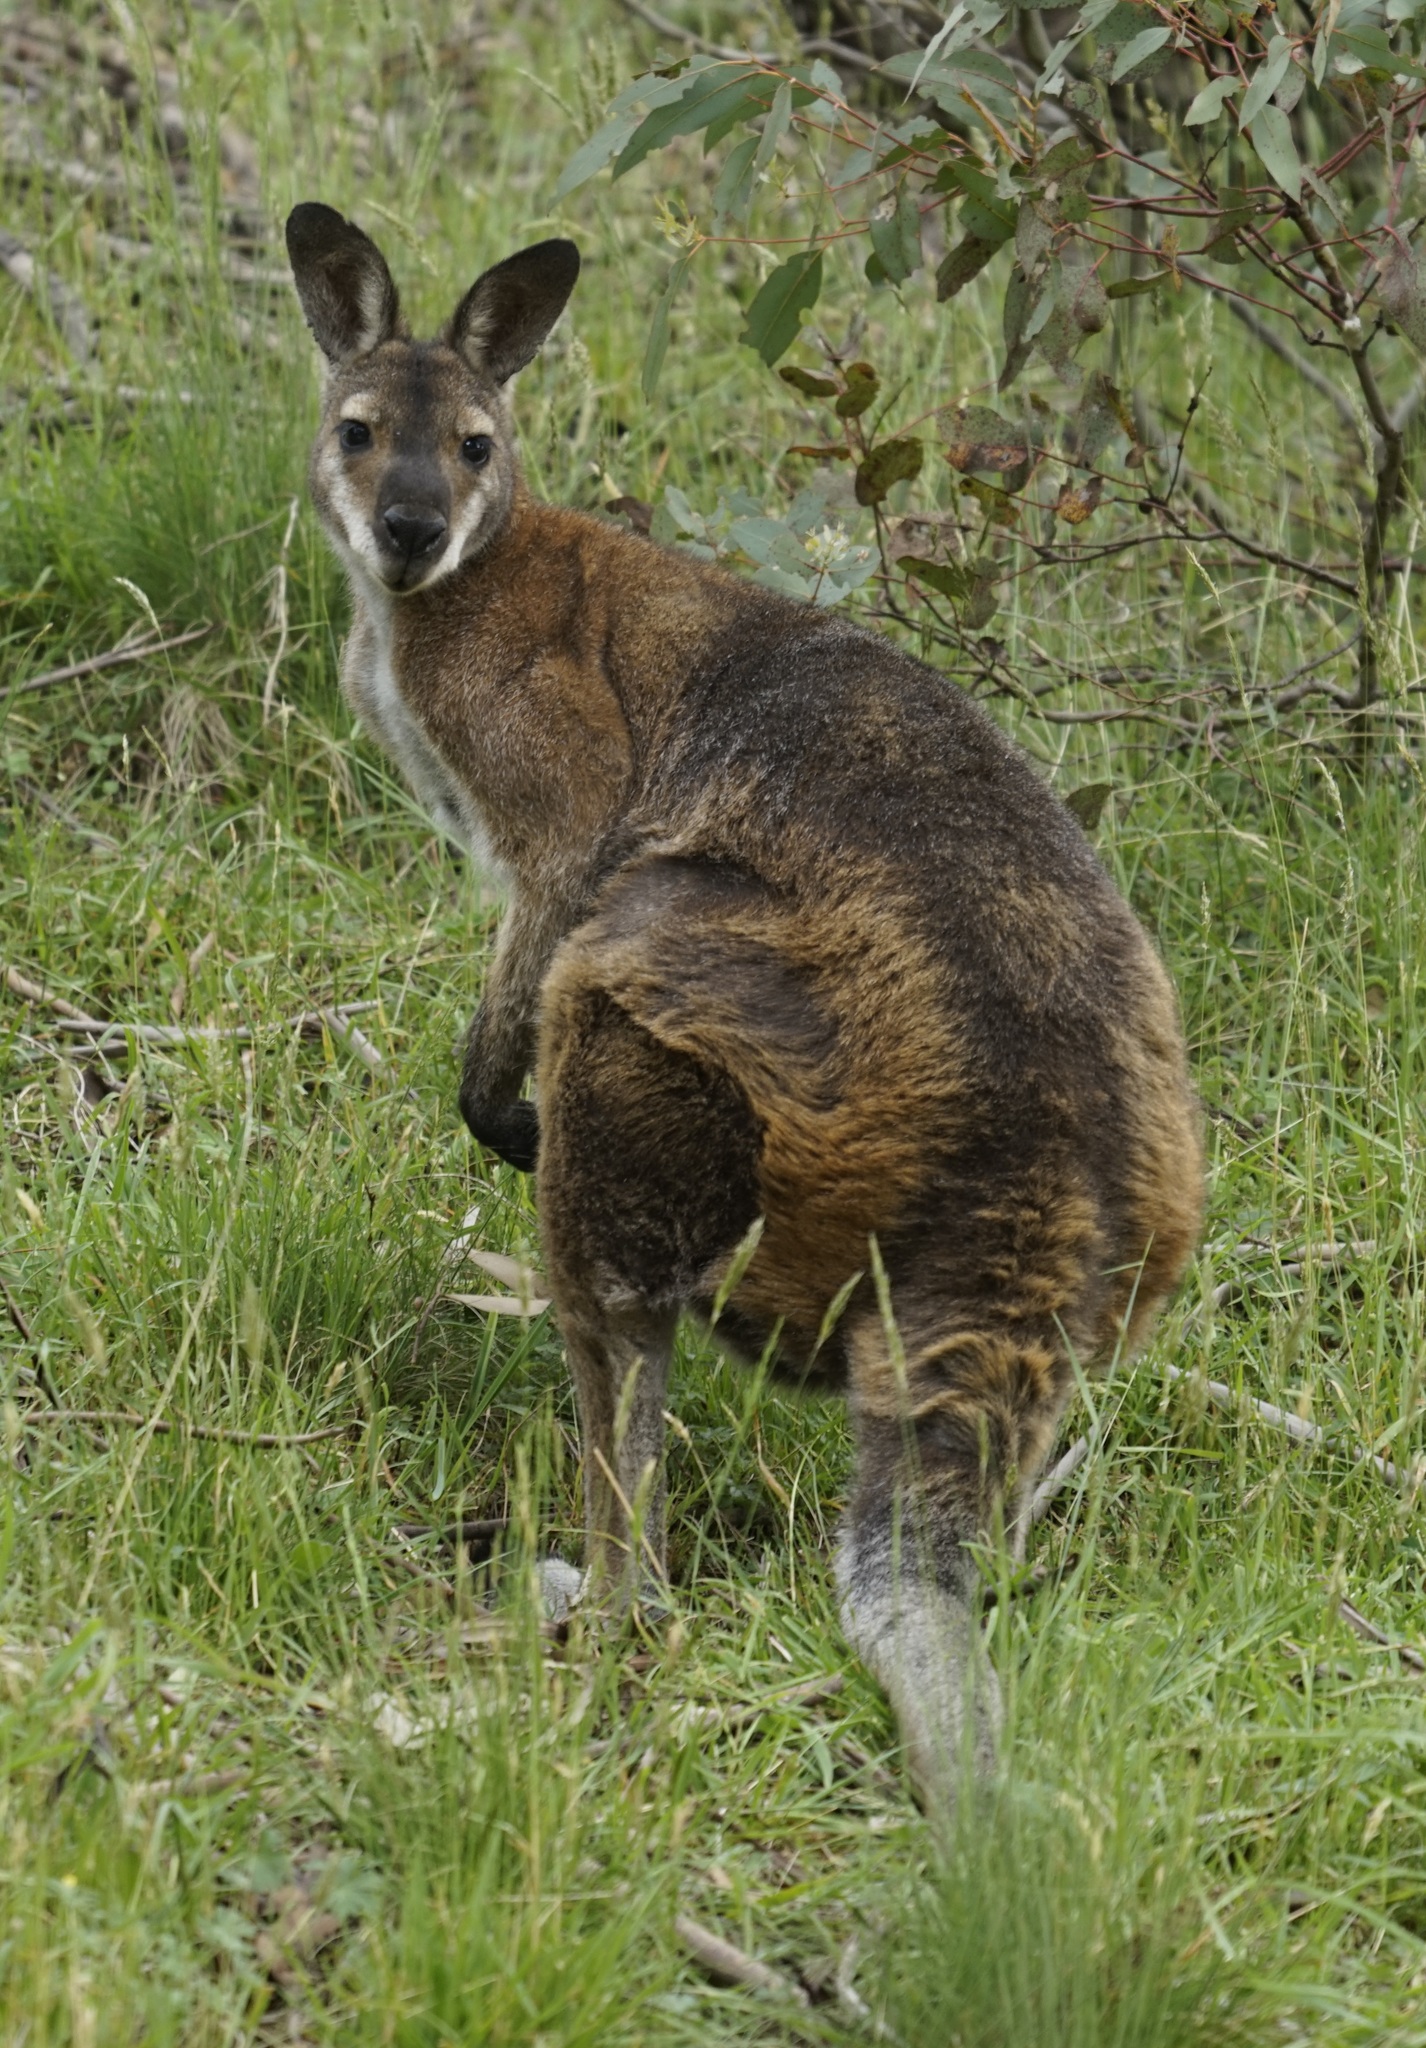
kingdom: Animalia
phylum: Chordata
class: Mammalia
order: Diprotodontia
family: Macropodidae
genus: Notamacropus
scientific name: Notamacropus rufogriseus
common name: Red-necked wallaby
